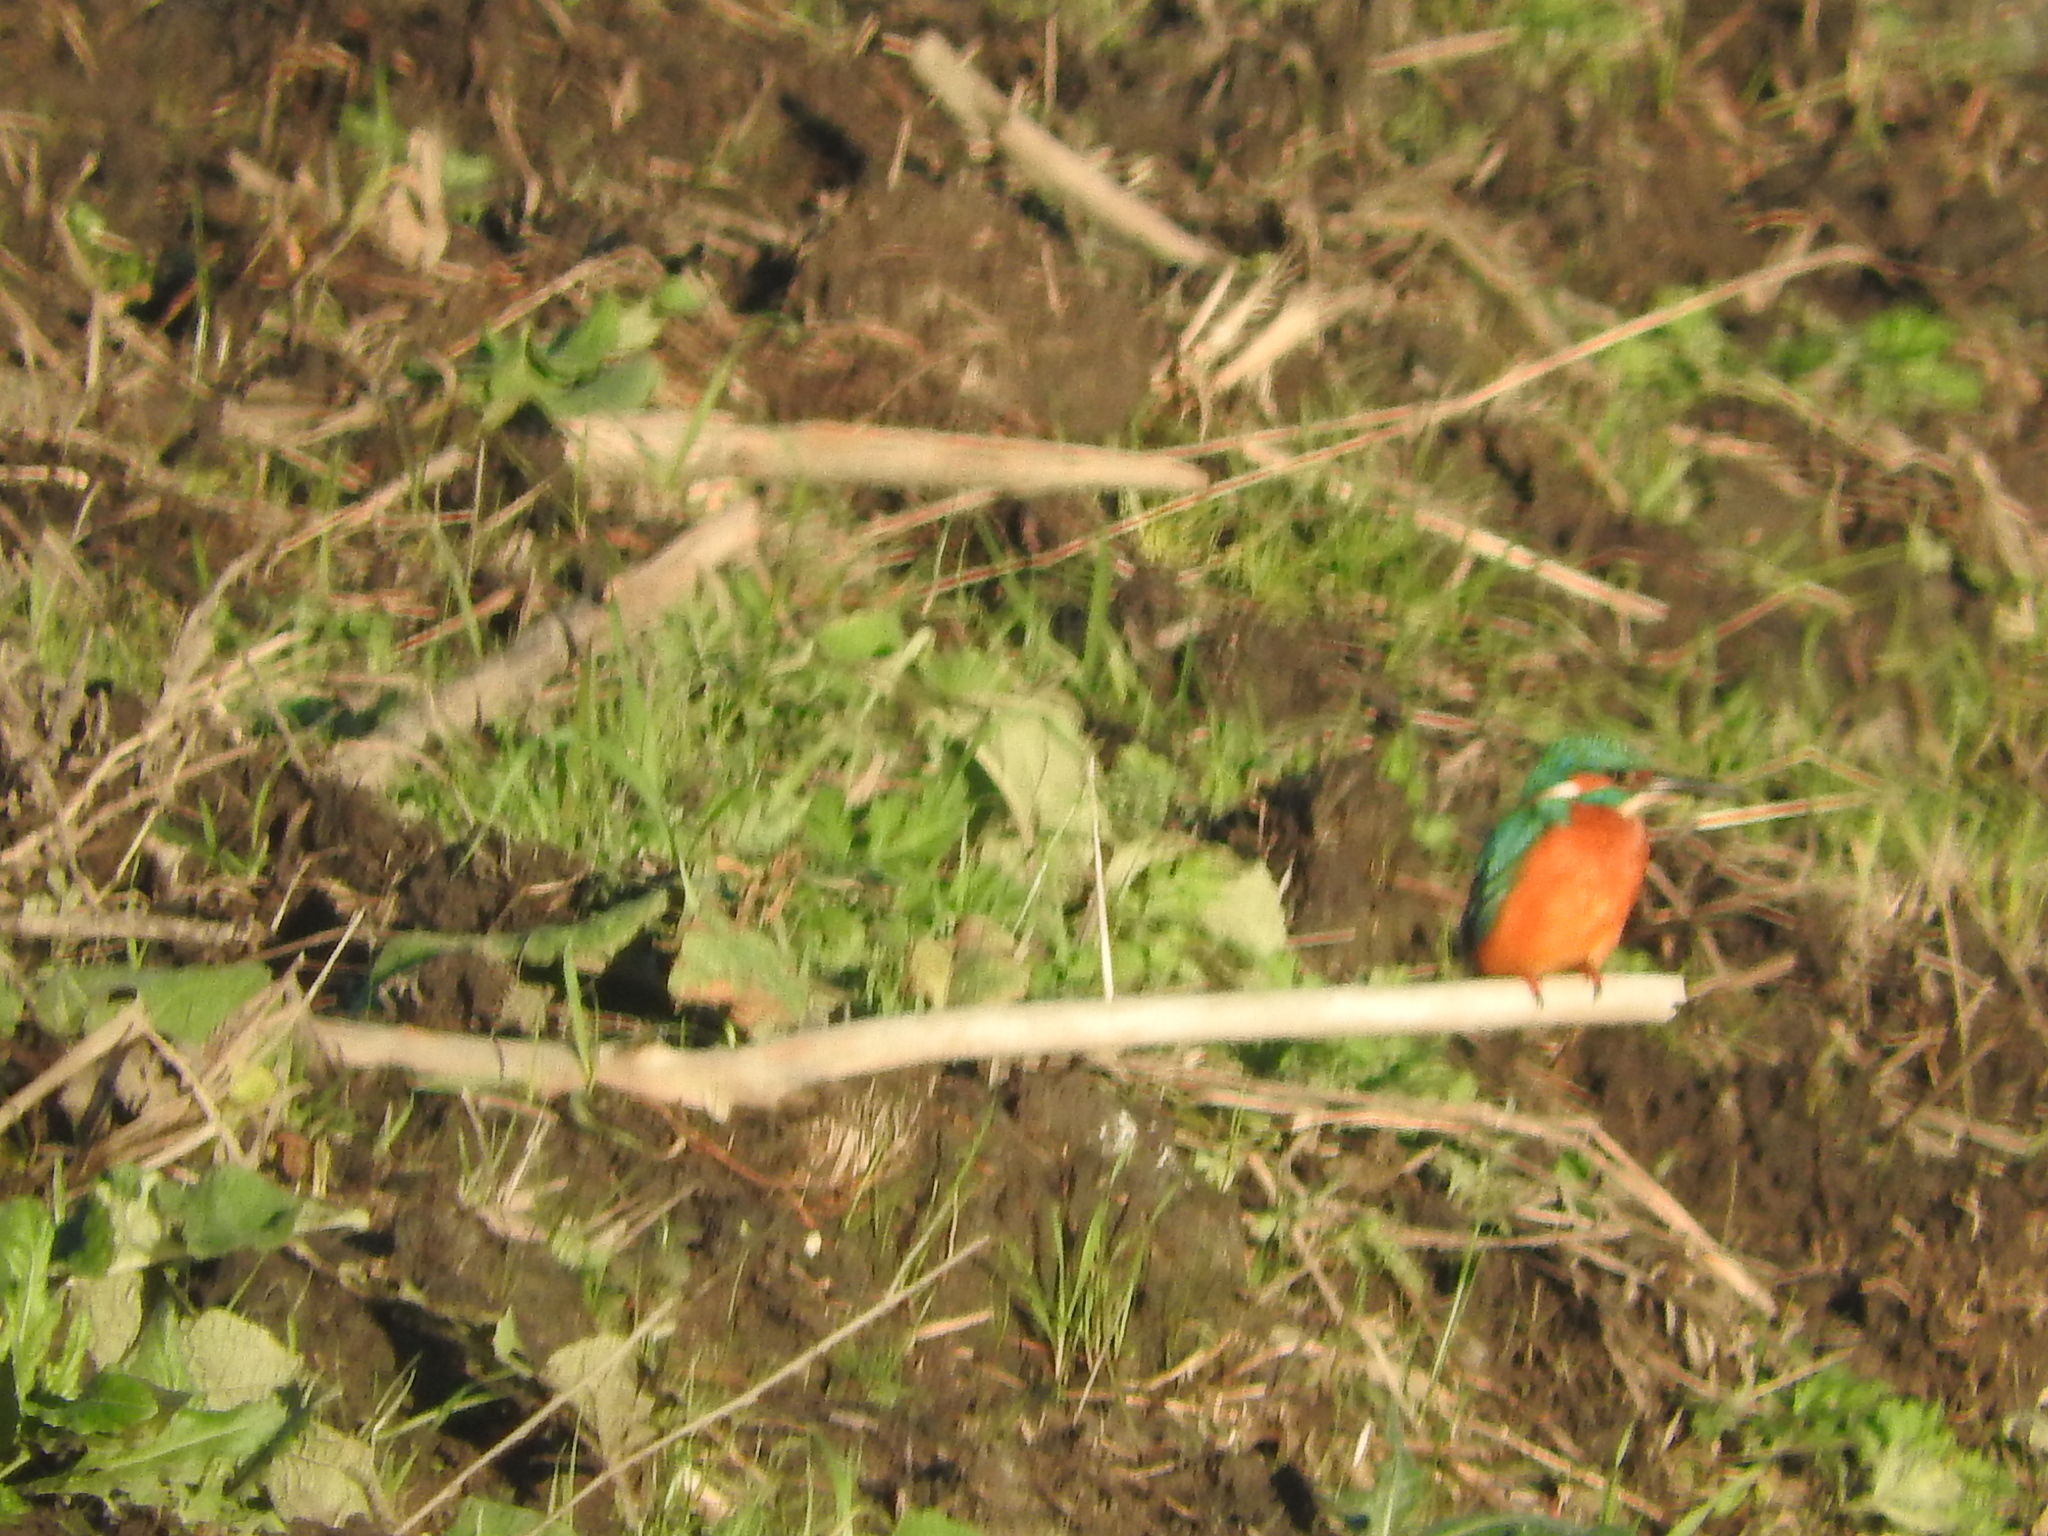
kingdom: Animalia
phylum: Chordata
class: Aves
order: Coraciiformes
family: Alcedinidae
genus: Alcedo
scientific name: Alcedo atthis
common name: Common kingfisher
